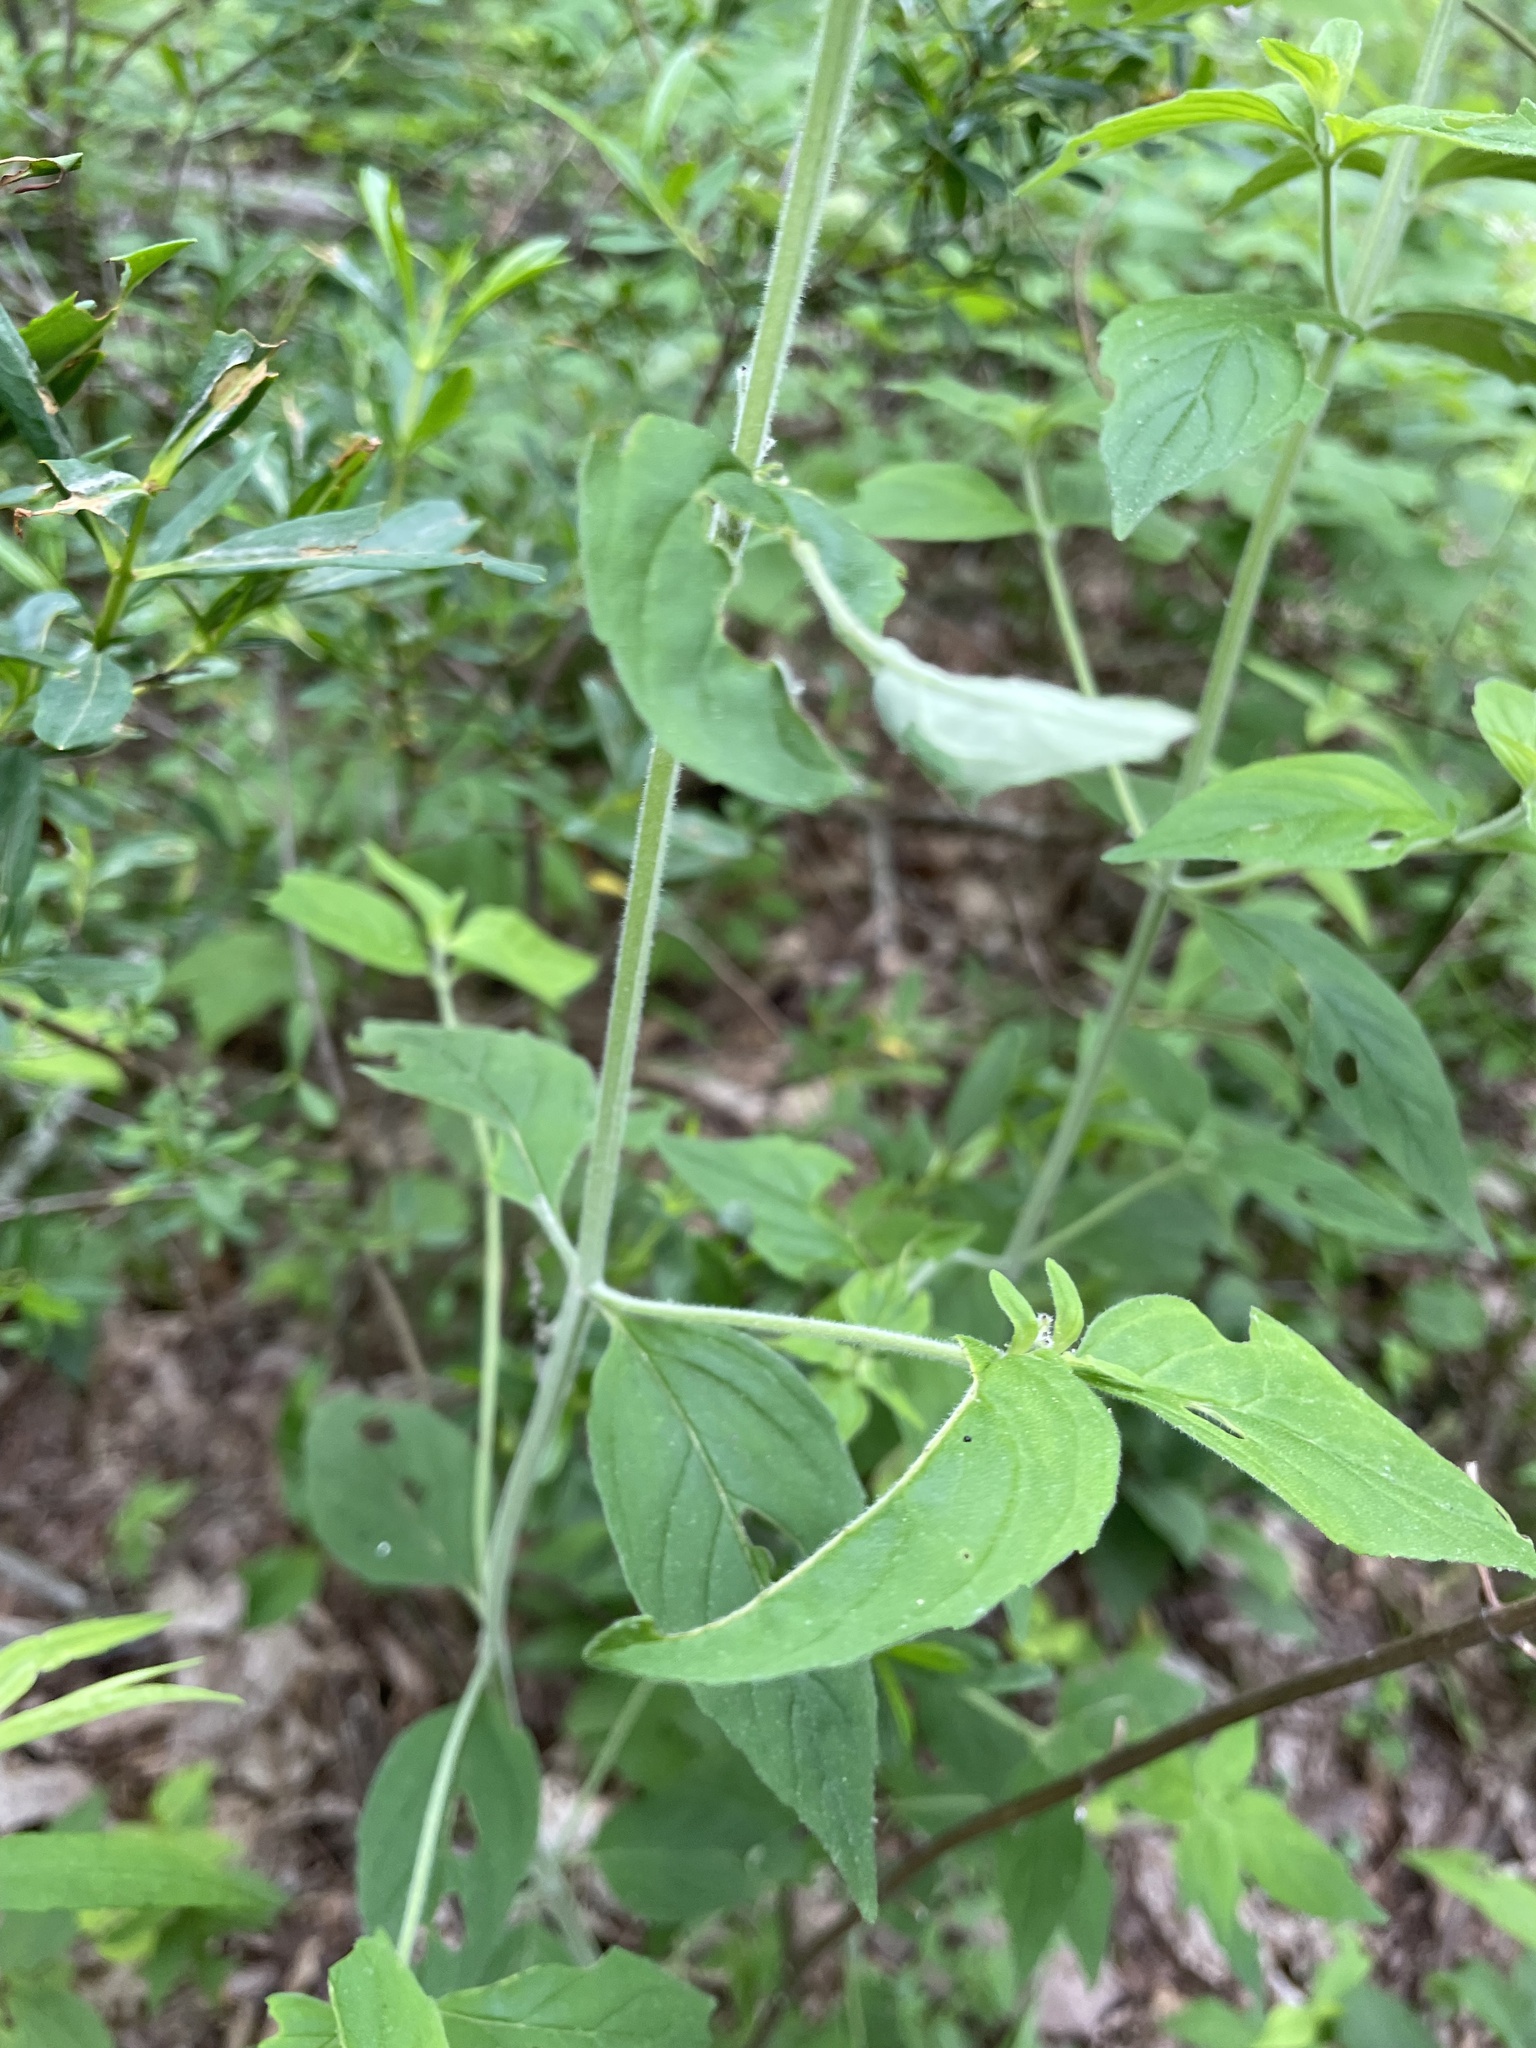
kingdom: Plantae
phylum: Tracheophyta
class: Magnoliopsida
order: Lamiales
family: Lamiaceae
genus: Monarda
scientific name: Monarda clinopodia
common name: Basil beebalm
